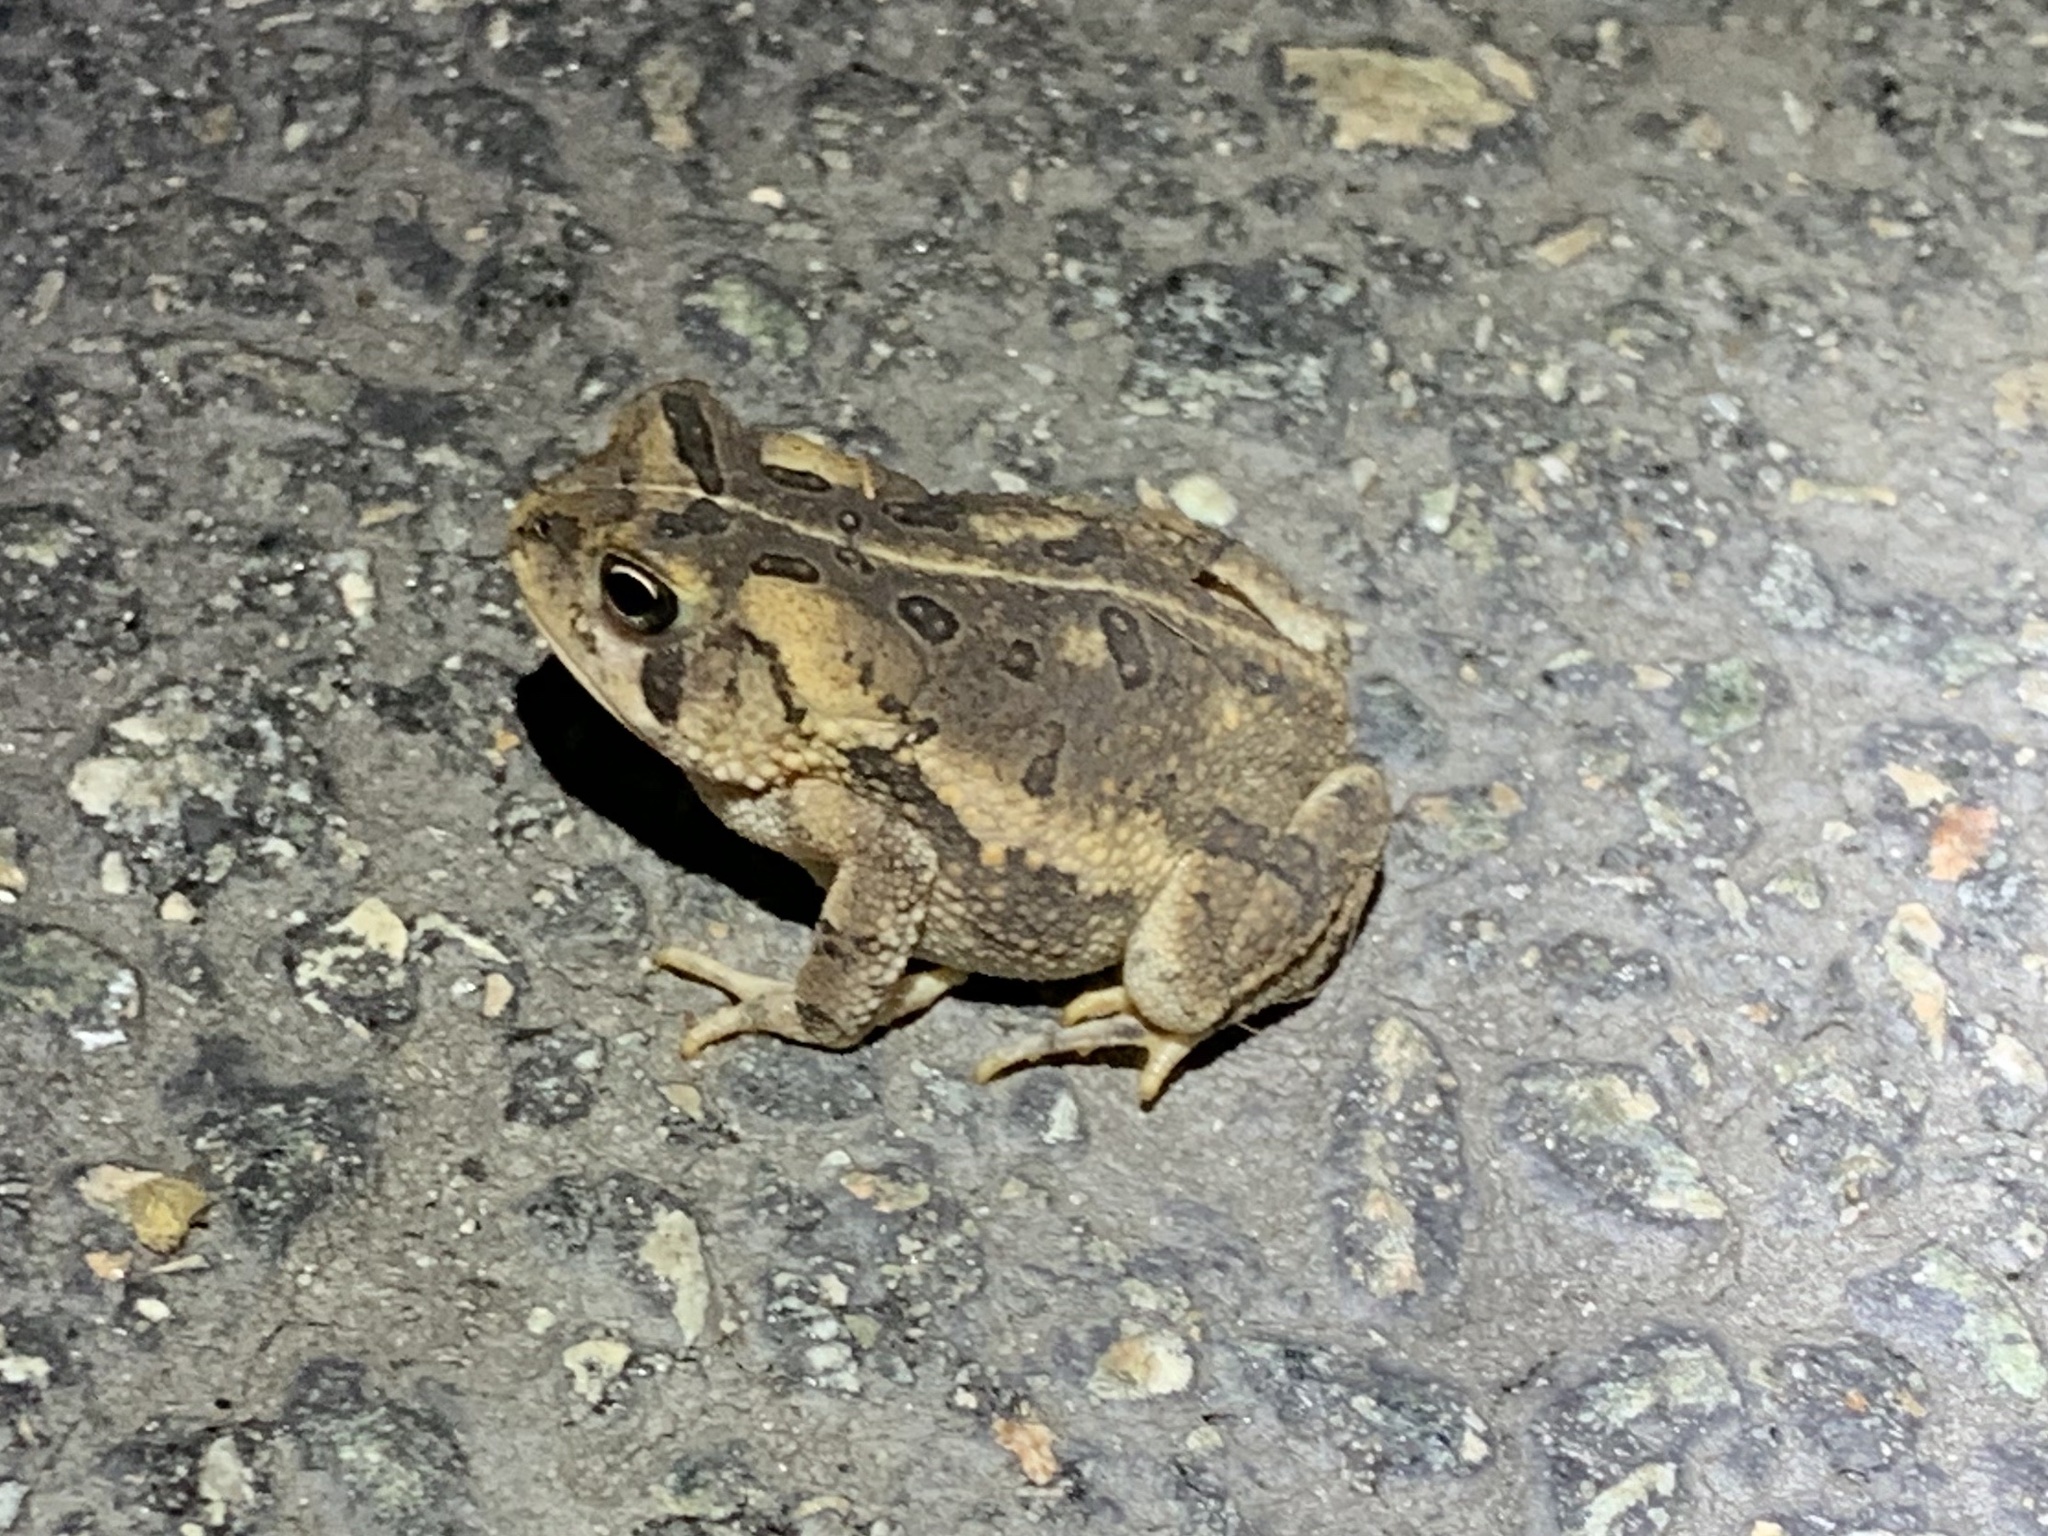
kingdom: Animalia
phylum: Chordata
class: Amphibia
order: Anura
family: Bufonidae
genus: Anaxyrus
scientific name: Anaxyrus fowleri
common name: Fowler's toad
